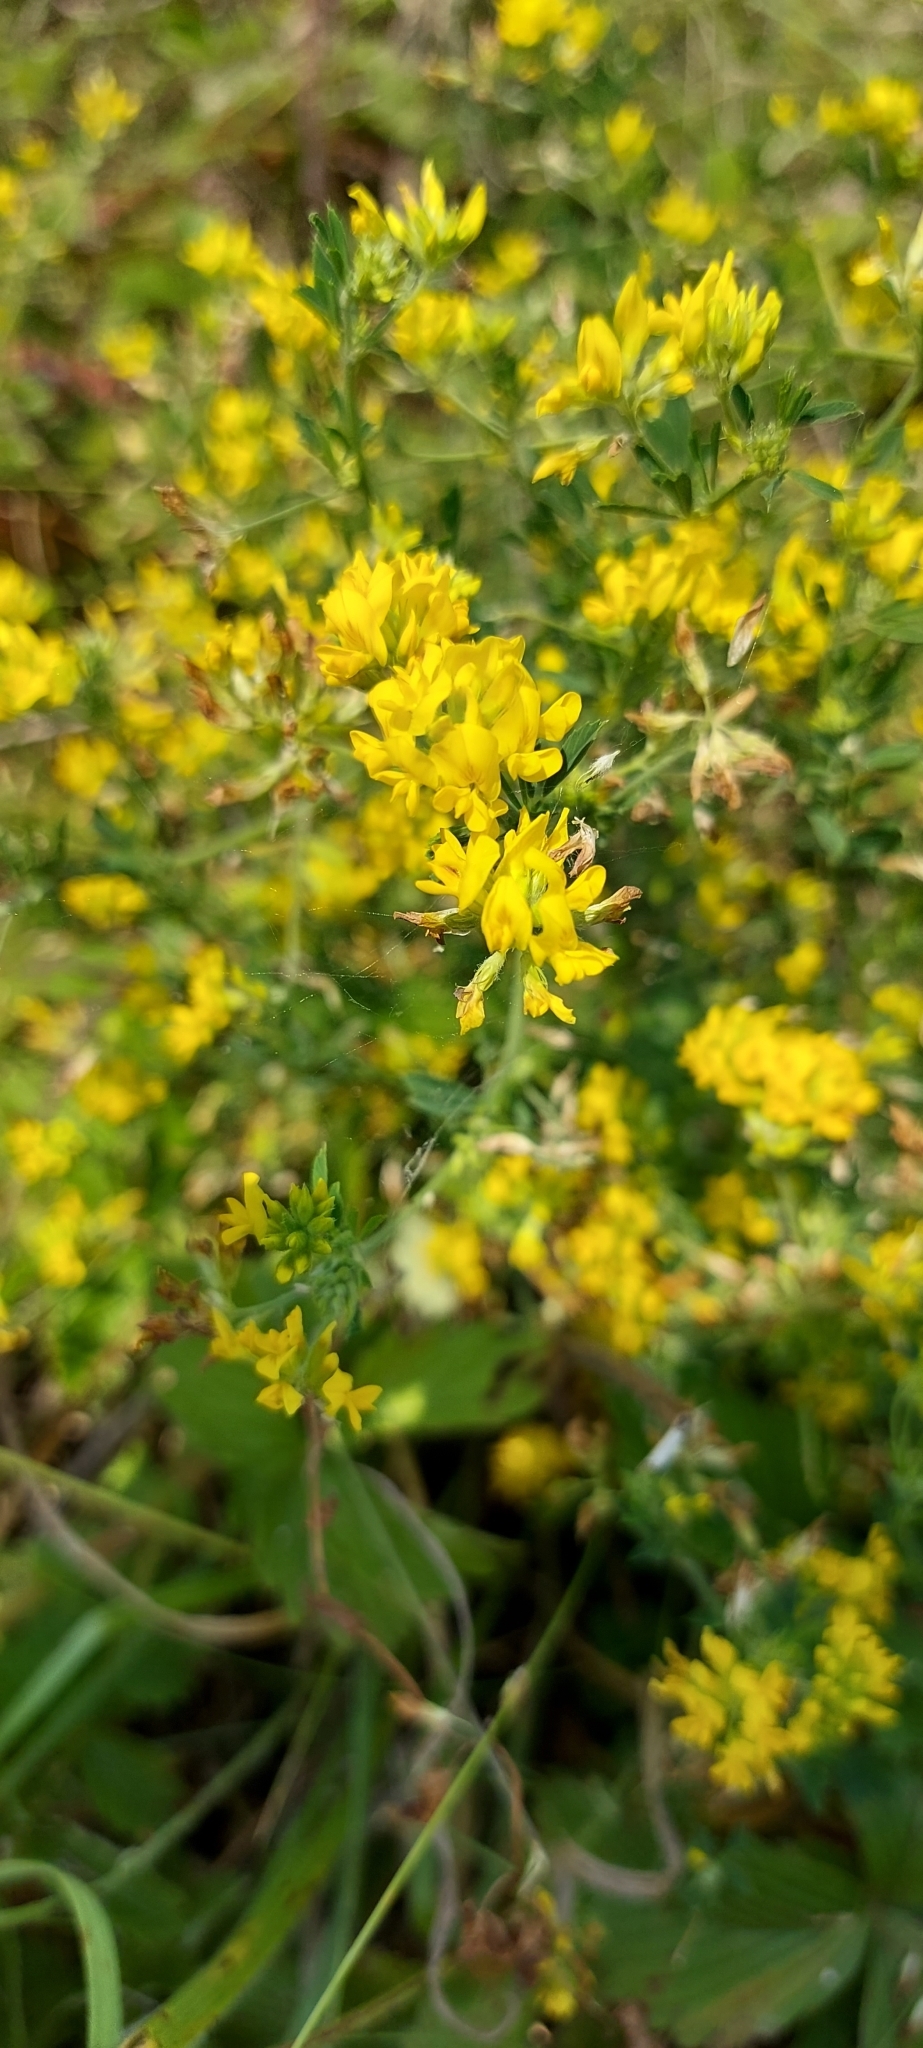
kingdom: Plantae
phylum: Tracheophyta
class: Magnoliopsida
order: Fabales
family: Fabaceae
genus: Medicago
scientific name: Medicago falcata
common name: Sickle medick
